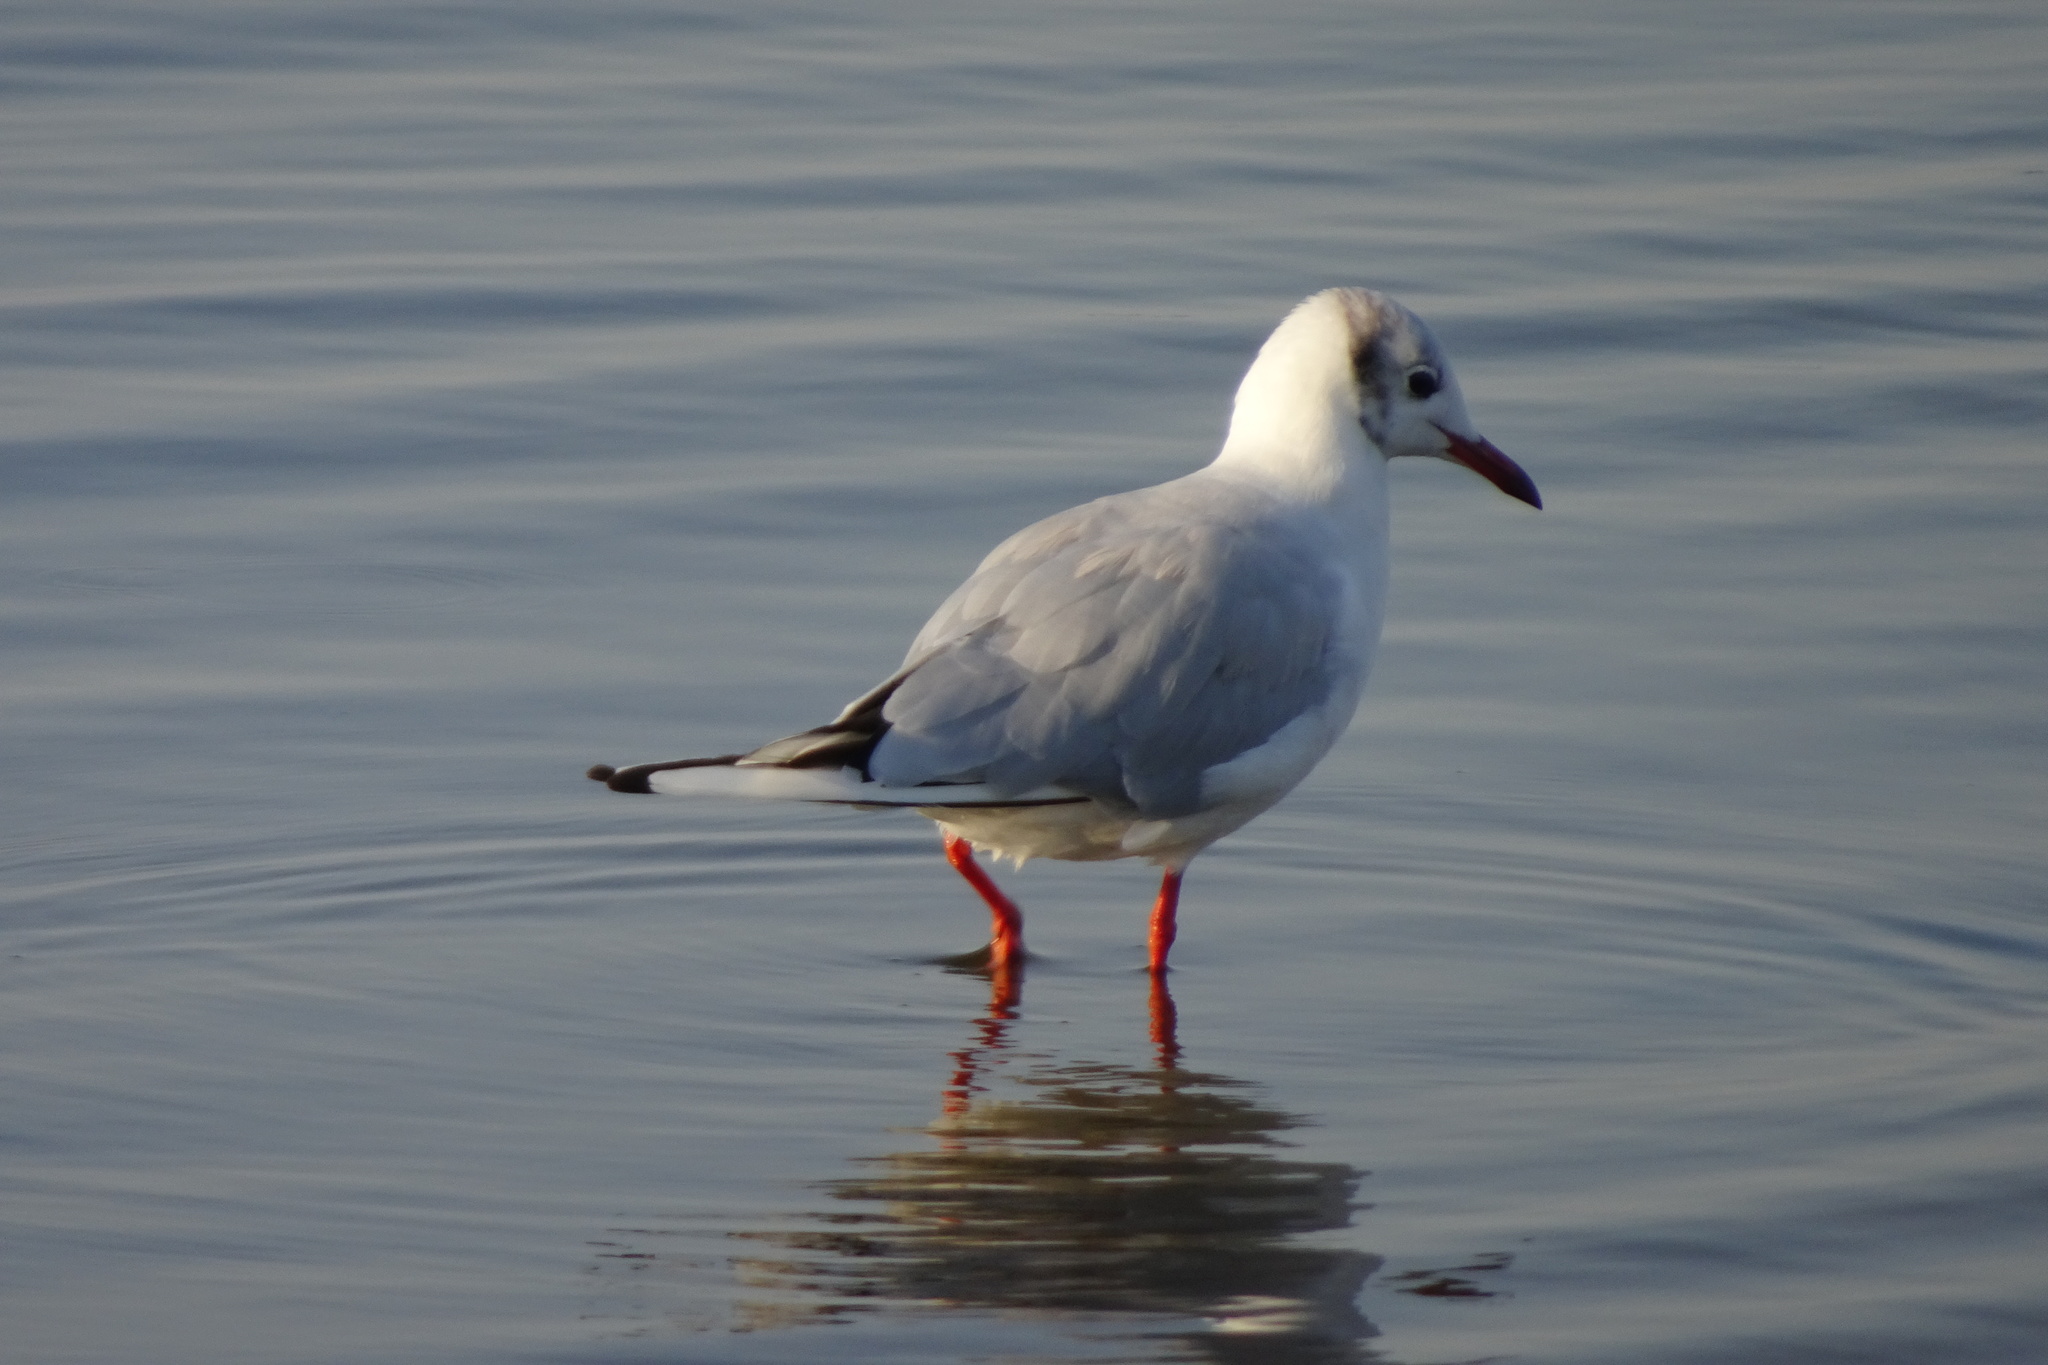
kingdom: Animalia
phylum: Chordata
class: Aves
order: Charadriiformes
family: Laridae
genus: Chroicocephalus
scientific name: Chroicocephalus ridibundus
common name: Black-headed gull
